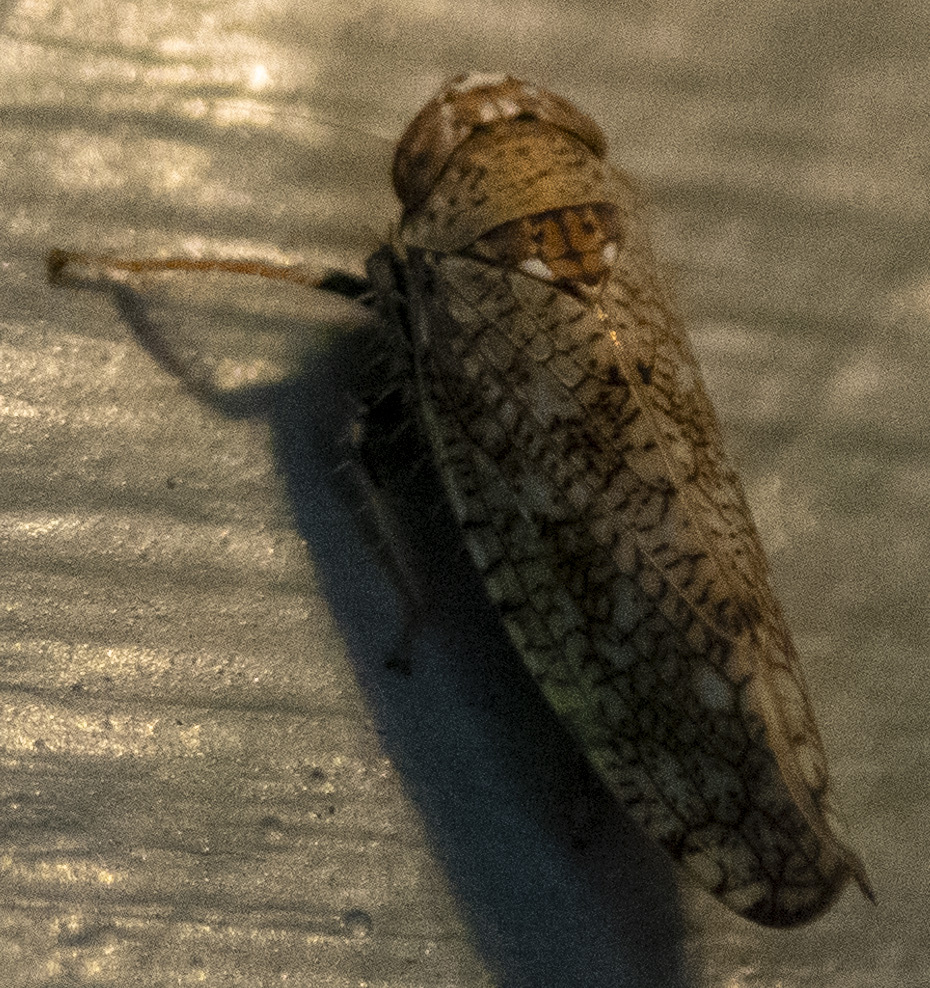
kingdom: Animalia
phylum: Arthropoda
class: Insecta
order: Hemiptera
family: Cicadellidae
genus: Orientus
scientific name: Orientus ishidae
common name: Japanese leafhopper
